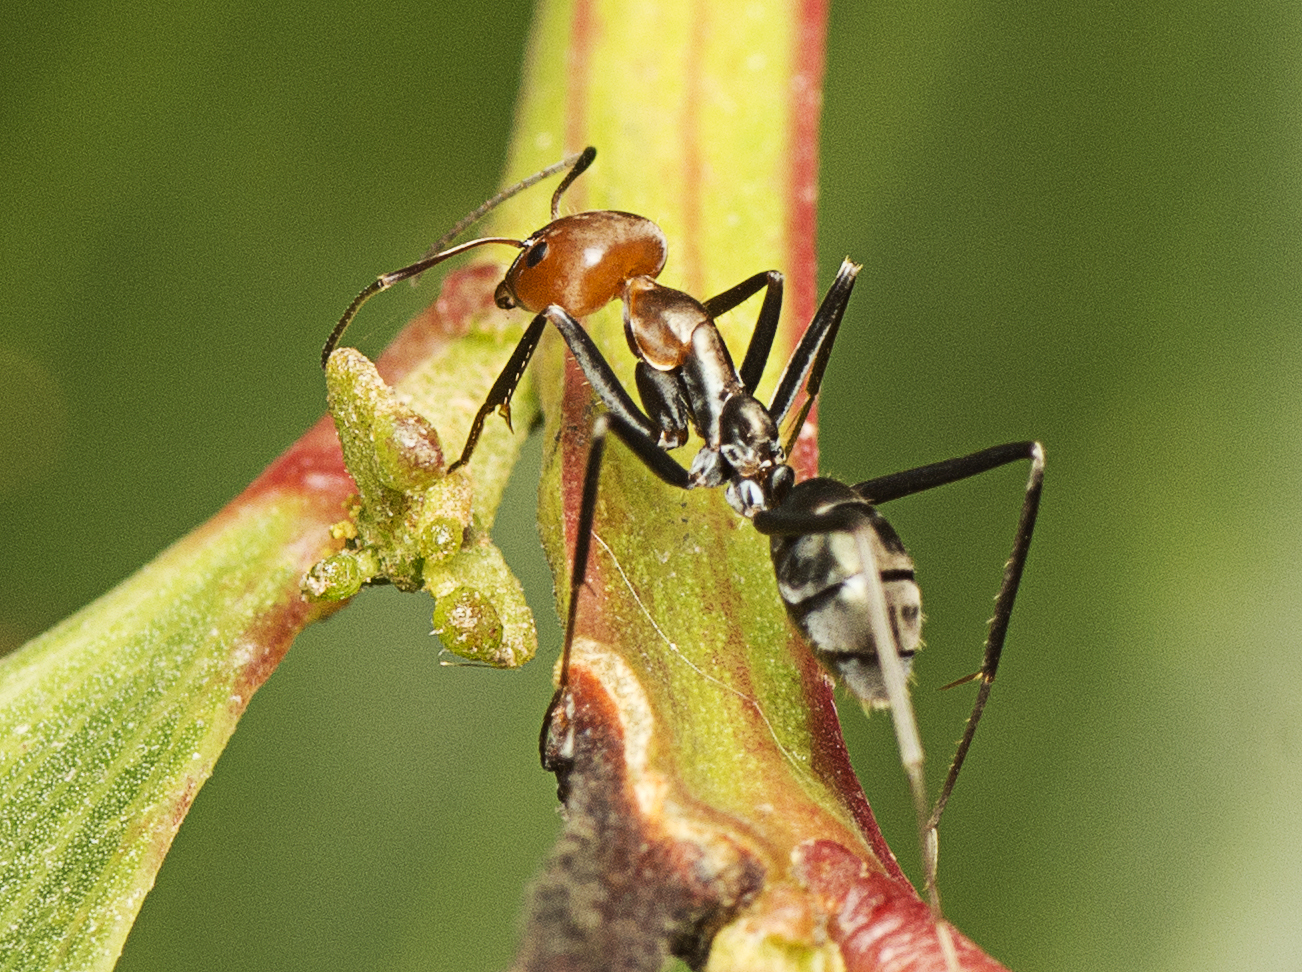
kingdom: Animalia
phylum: Arthropoda
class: Insecta
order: Hymenoptera
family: Formicidae
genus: Iridomyrmex
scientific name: Iridomyrmex
